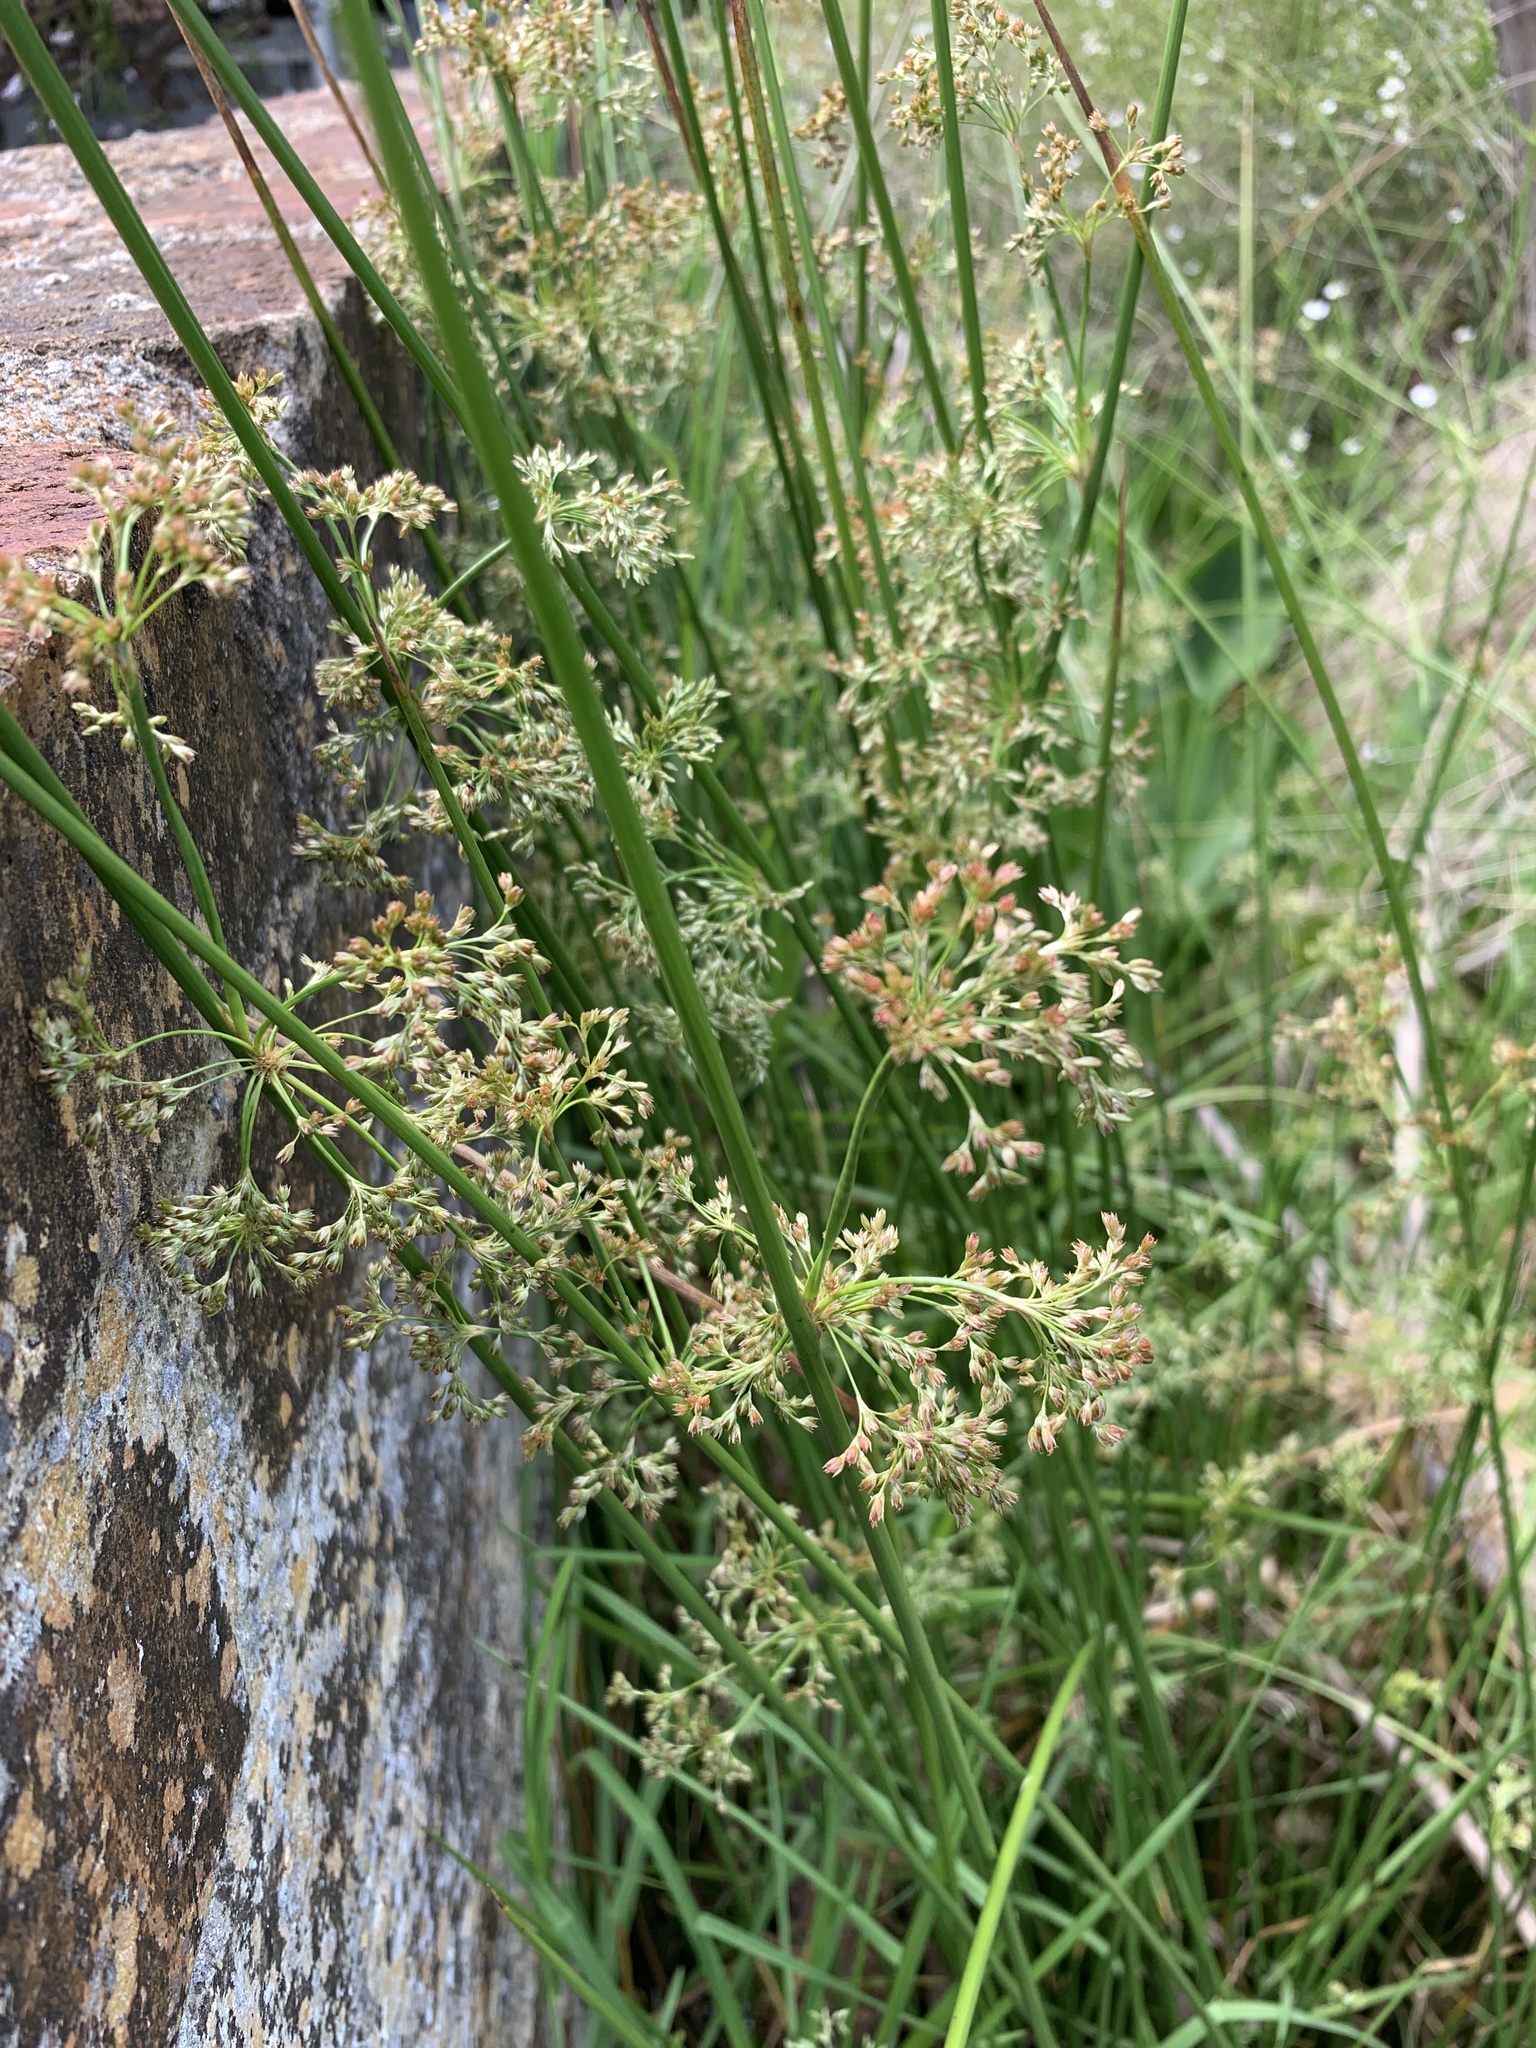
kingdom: Plantae
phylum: Tracheophyta
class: Liliopsida
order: Poales
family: Juncaceae
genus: Juncus
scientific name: Juncus effusus
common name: Soft rush
